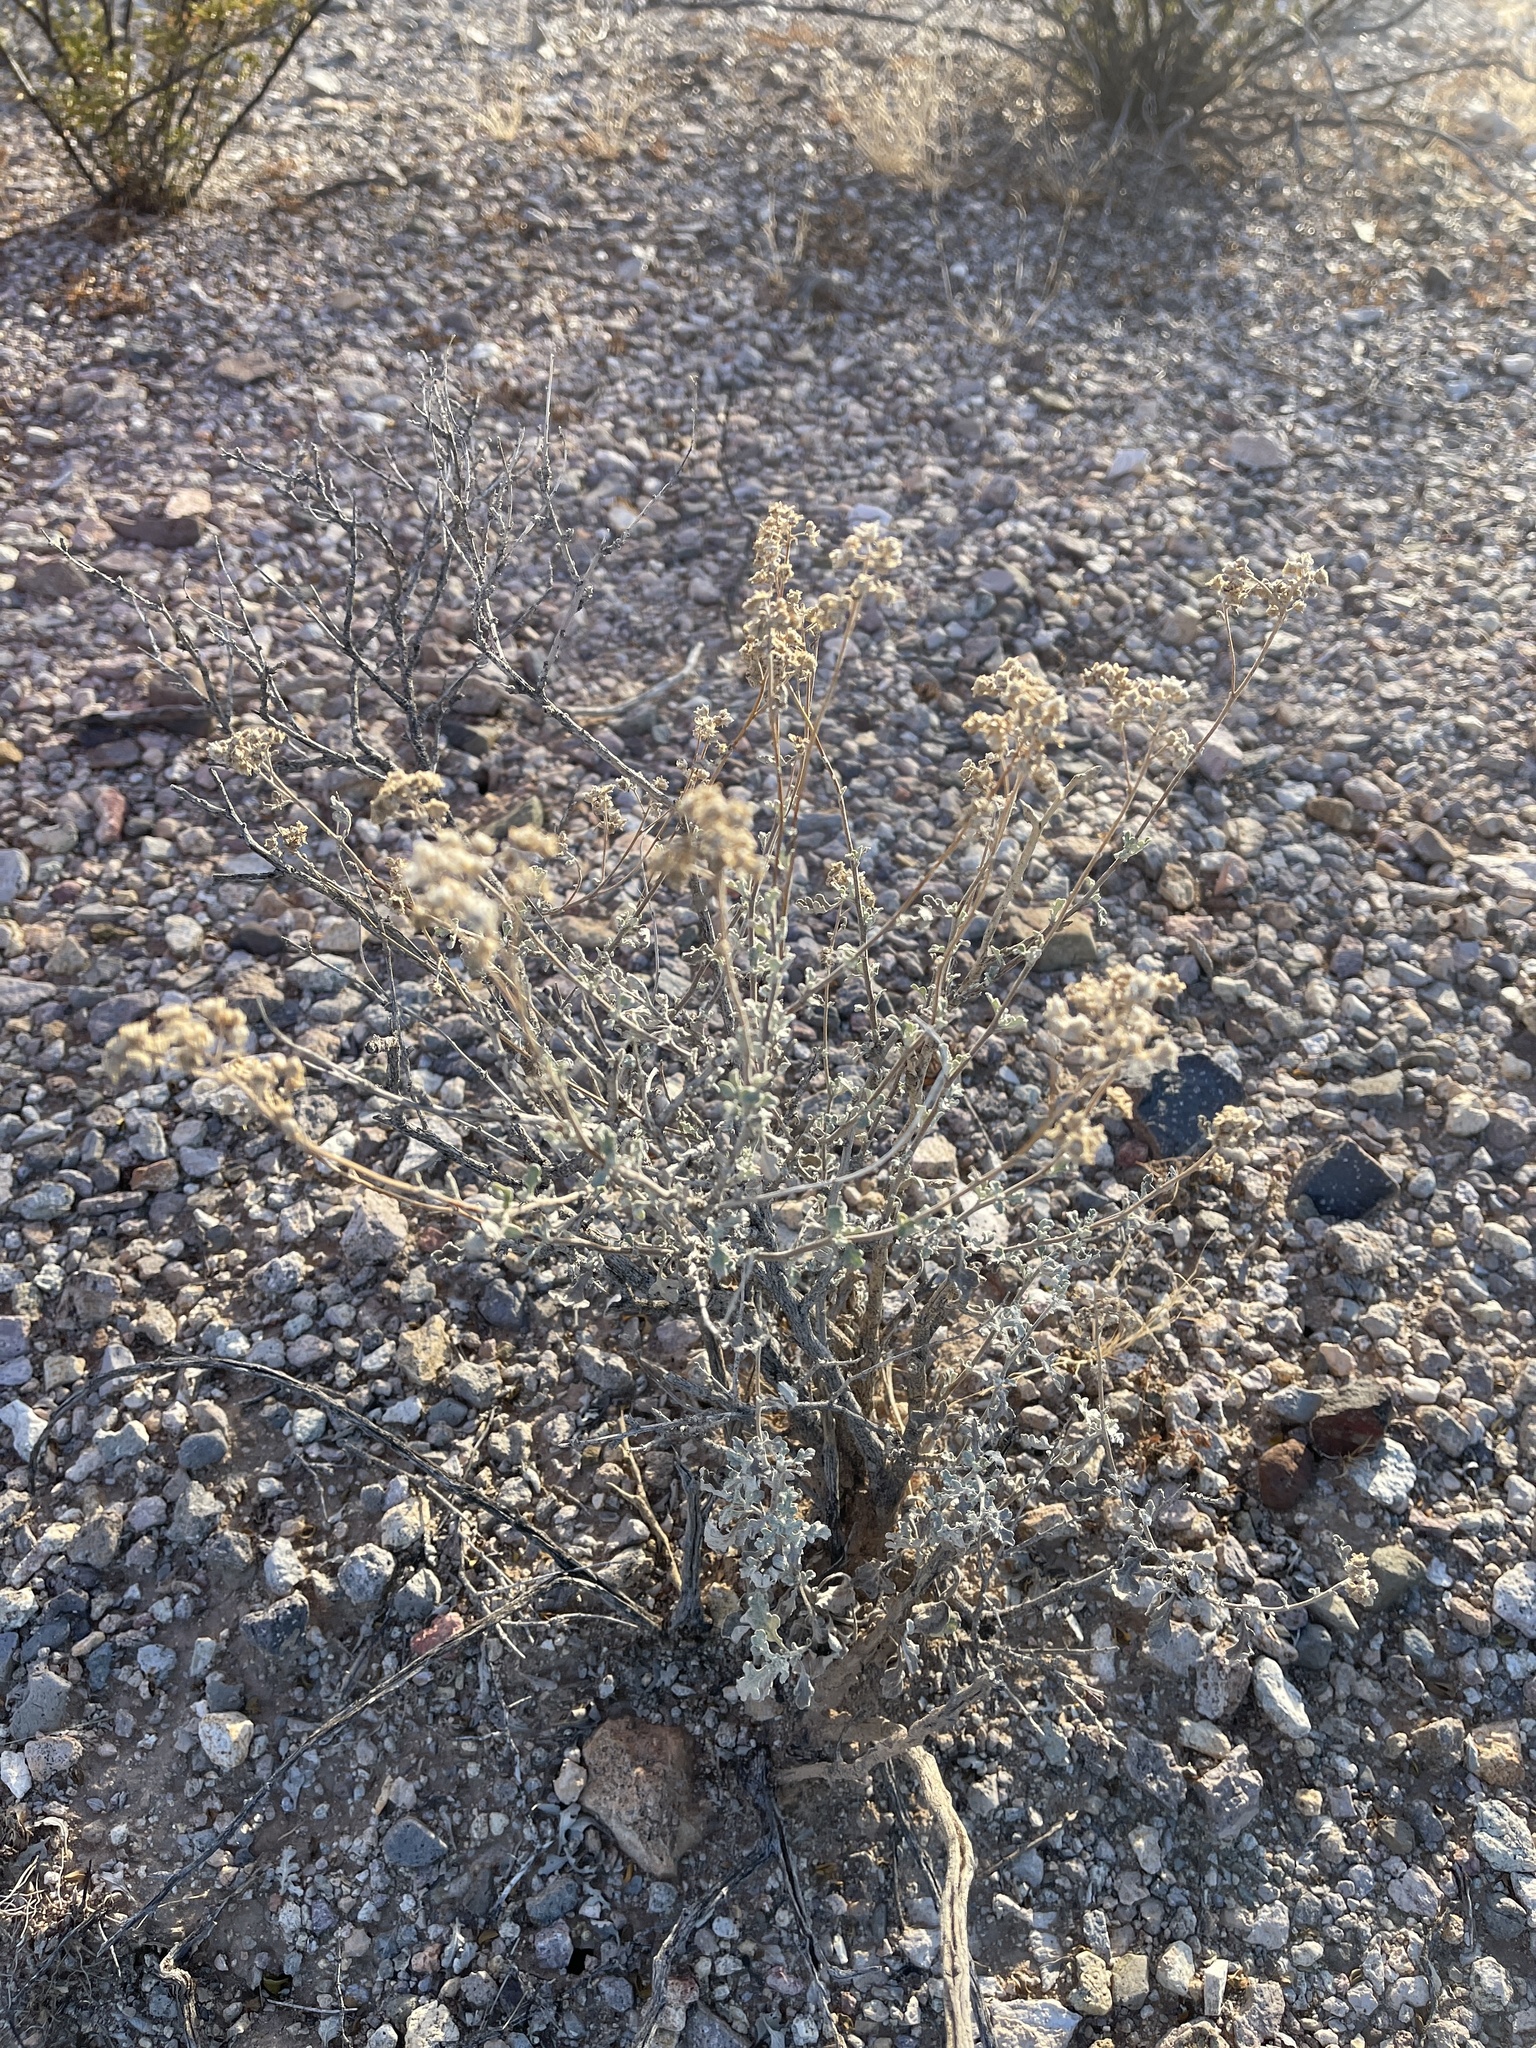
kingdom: Plantae
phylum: Tracheophyta
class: Magnoliopsida
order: Asterales
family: Asteraceae
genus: Parthenium
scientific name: Parthenium incanum
